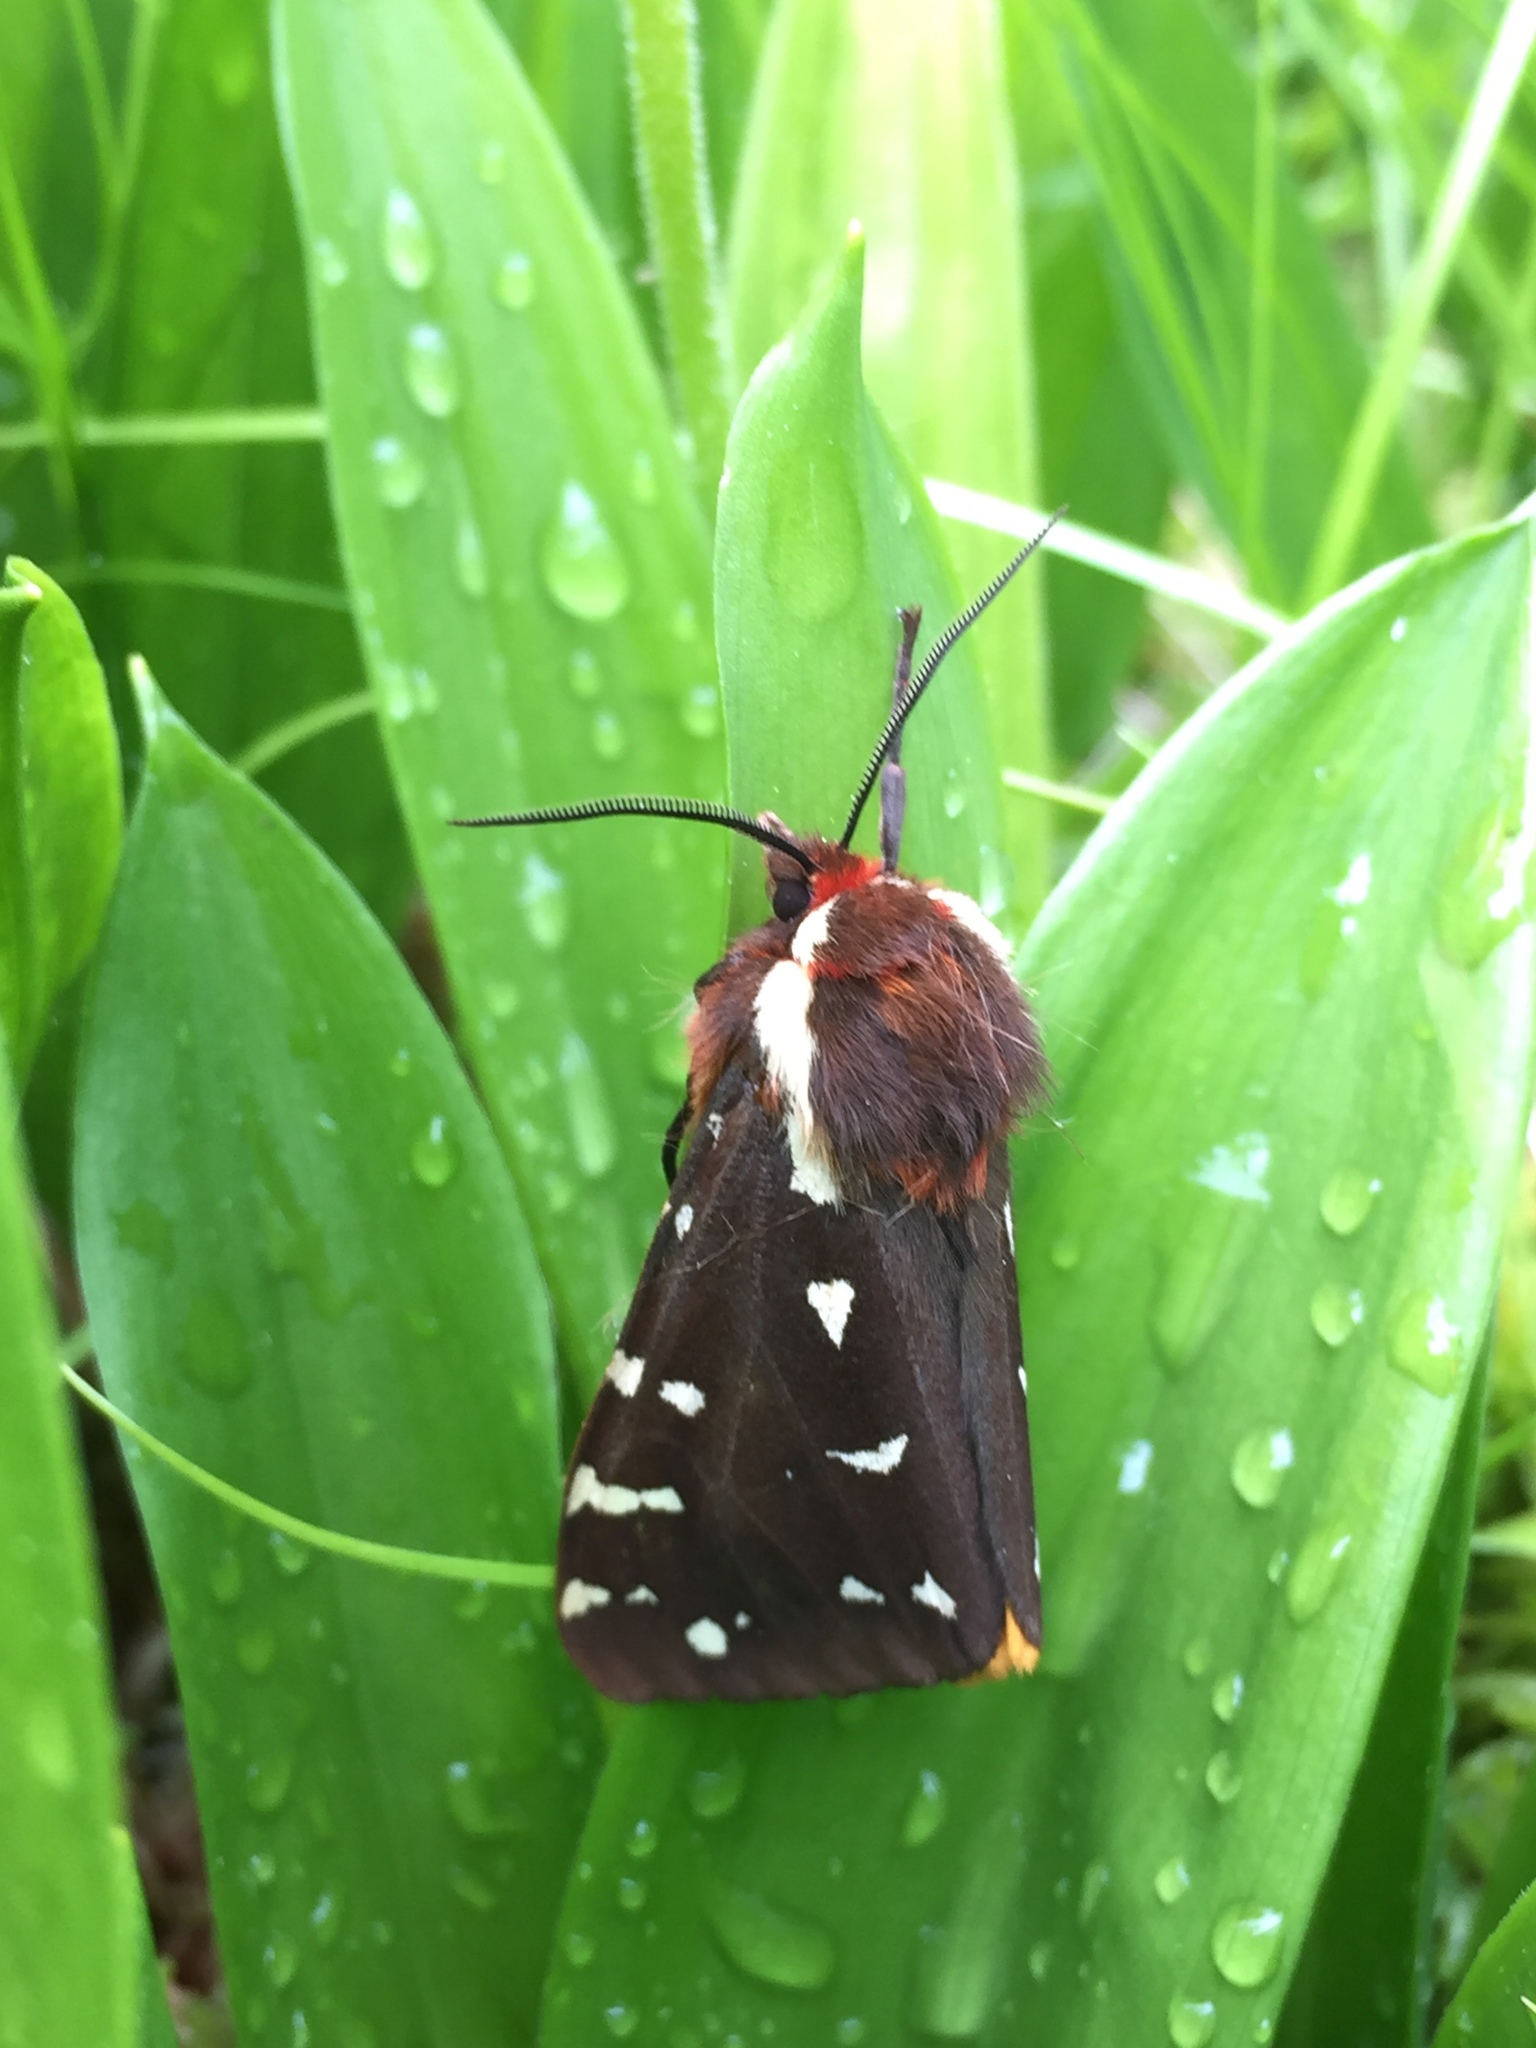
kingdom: Animalia
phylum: Arthropoda
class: Insecta
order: Lepidoptera
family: Erebidae
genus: Arctia
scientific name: Arctia parthenos
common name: St. lawrence tiger moth
